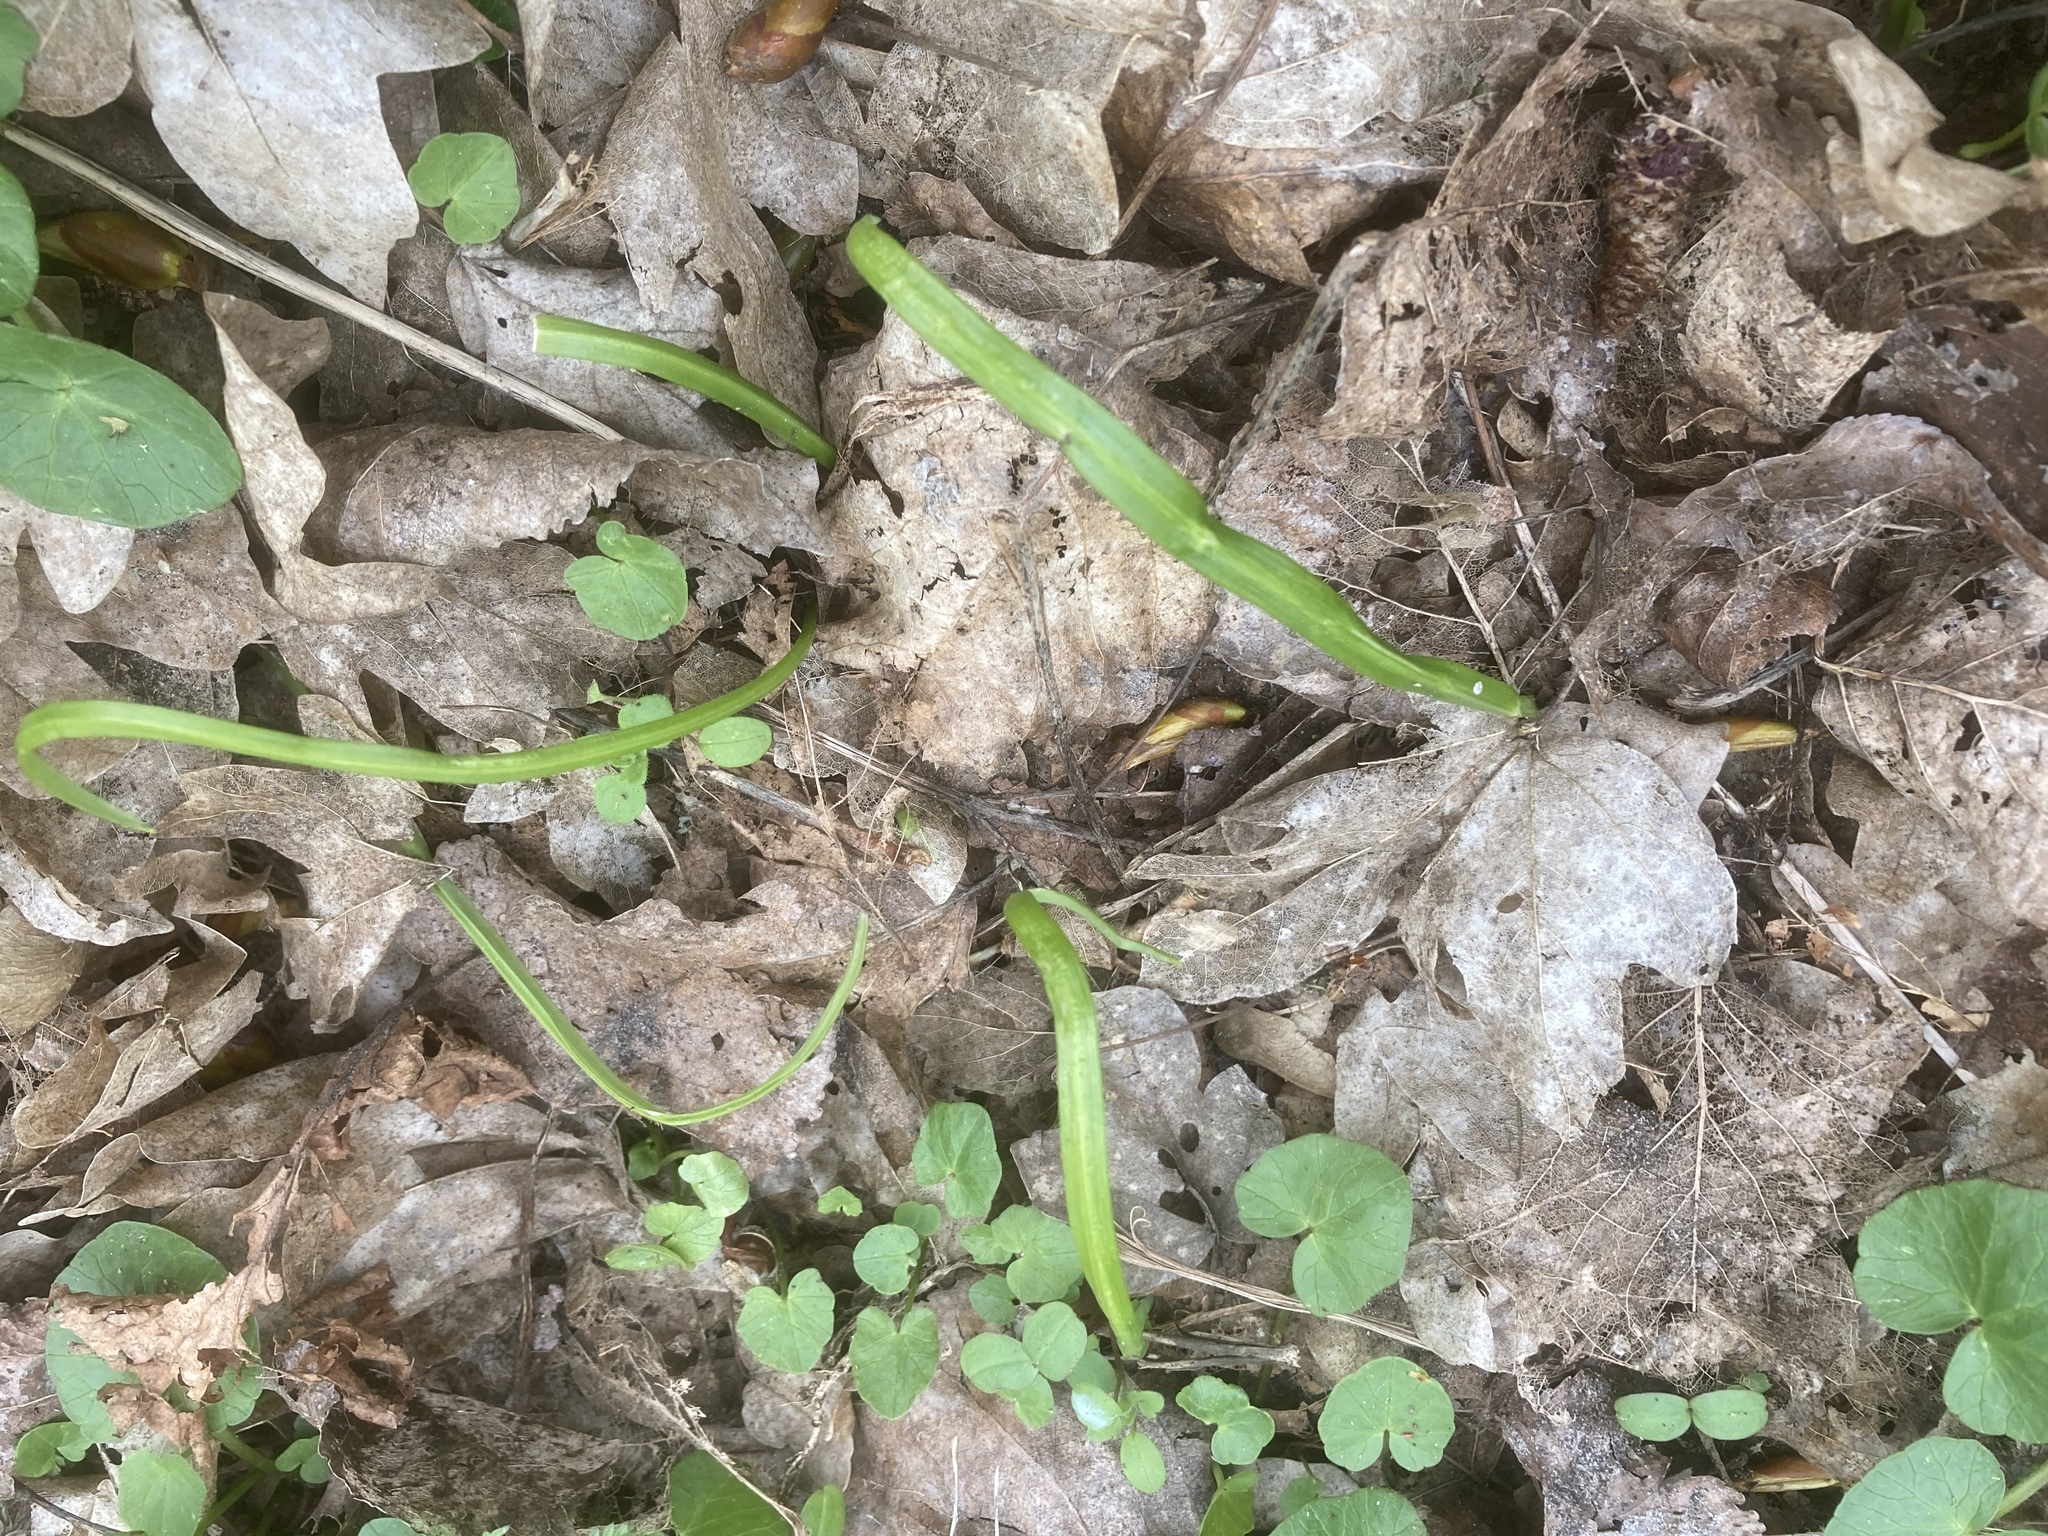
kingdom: Plantae
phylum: Tracheophyta
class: Magnoliopsida
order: Ranunculales
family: Ranunculaceae
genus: Ficaria
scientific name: Ficaria verna
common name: Lesser celandine
